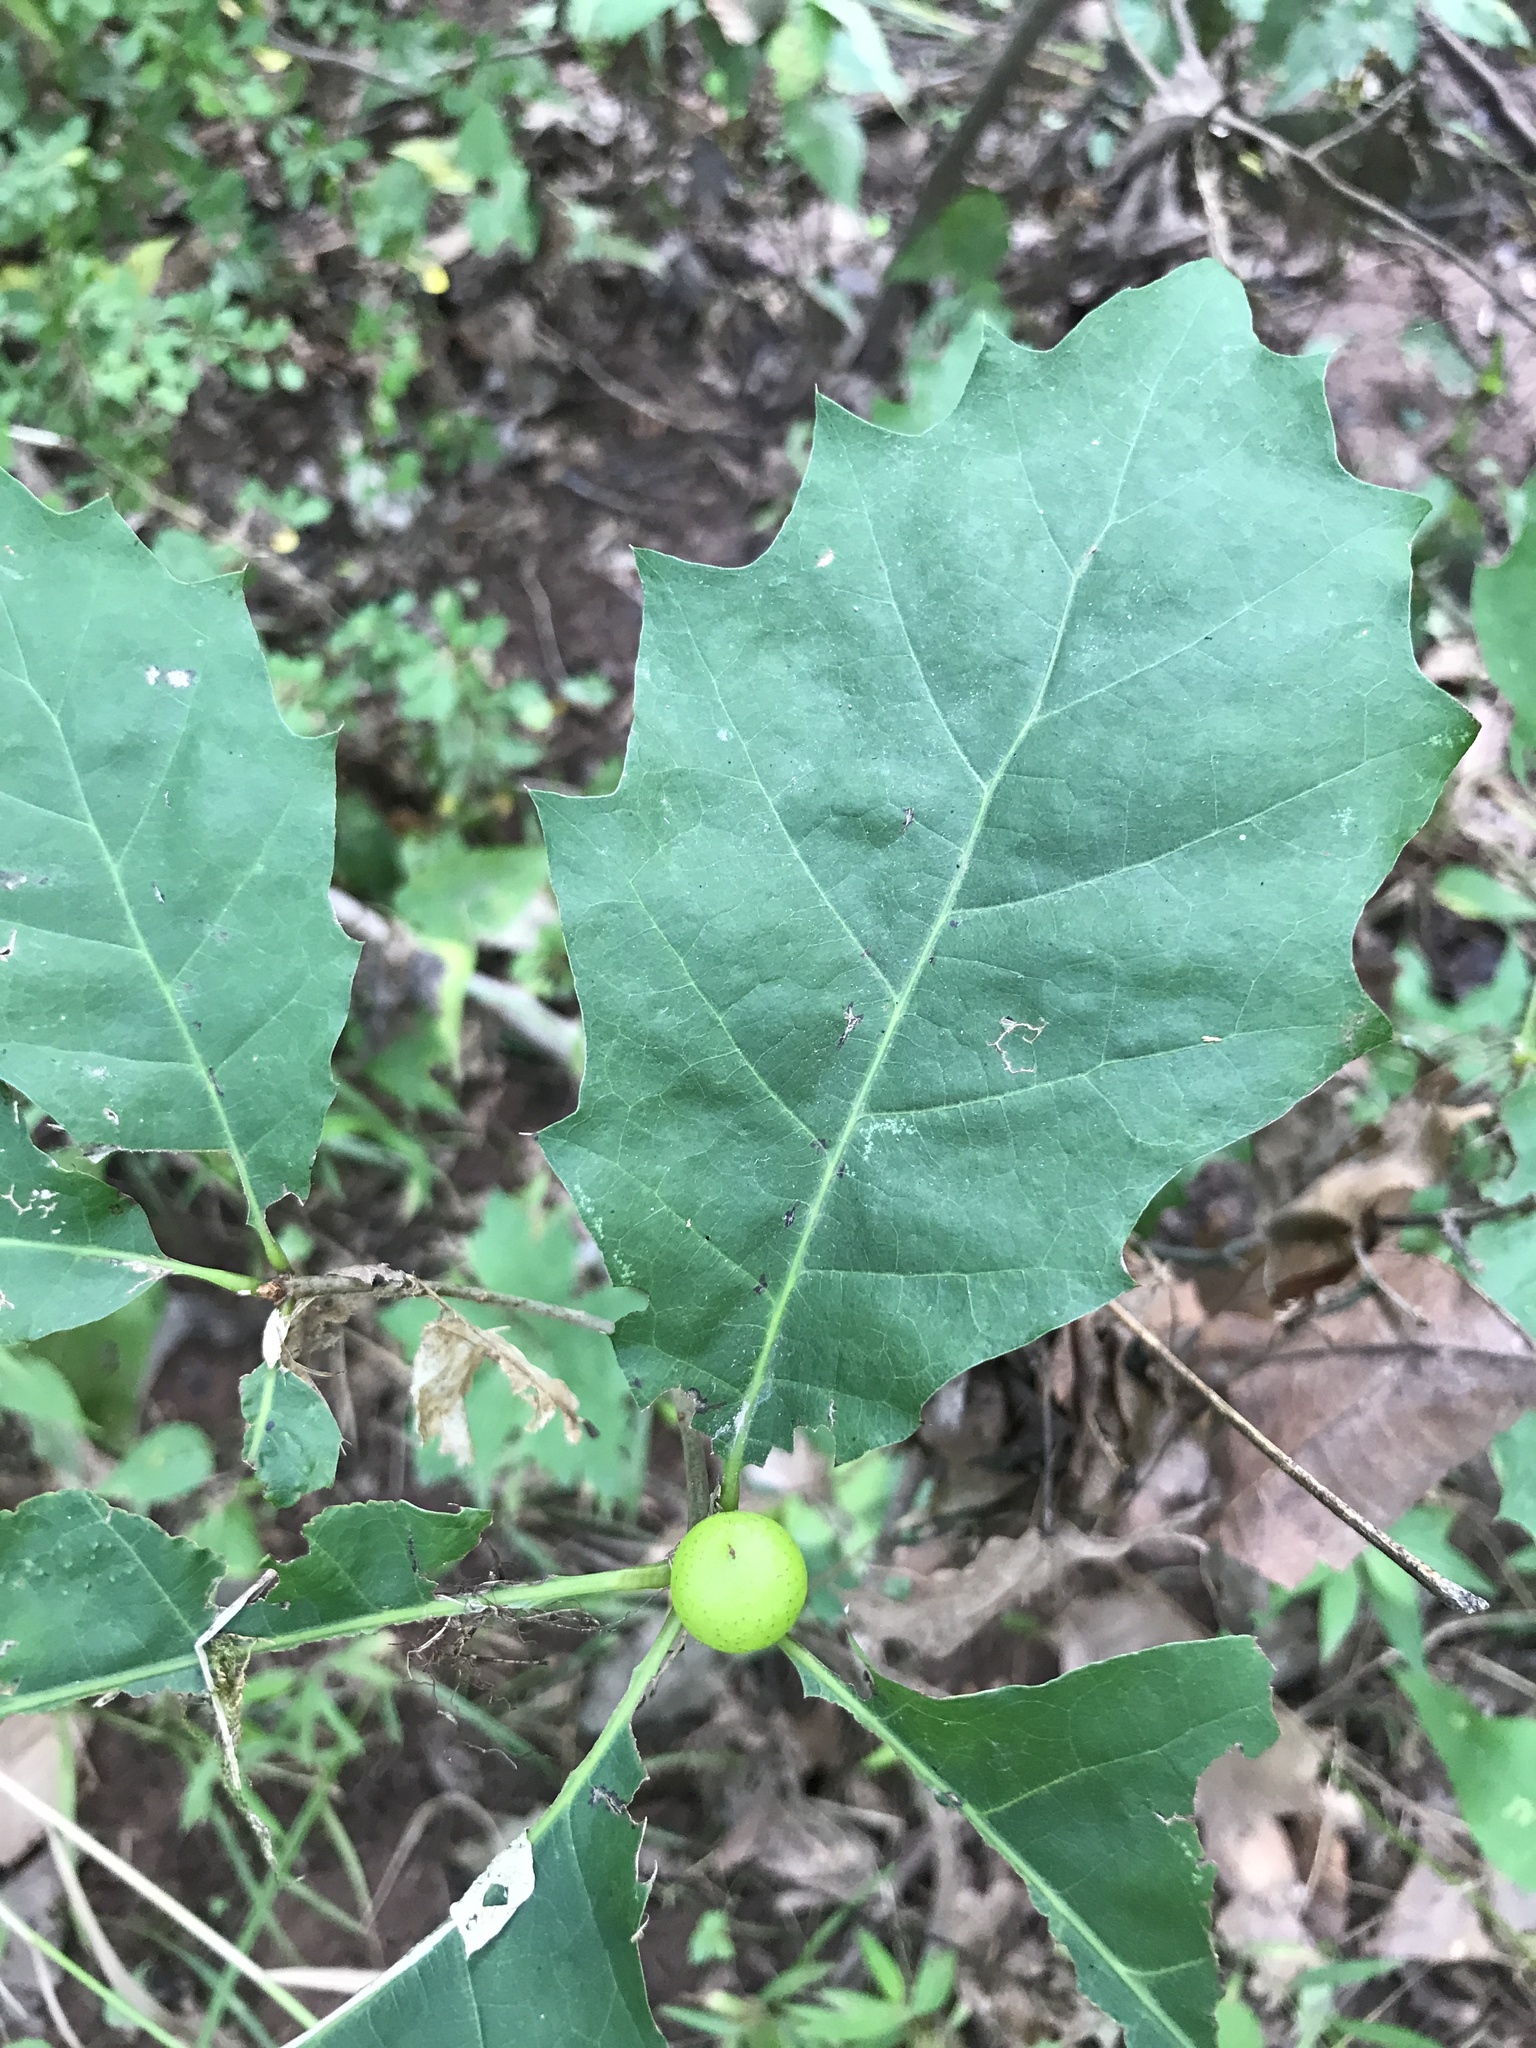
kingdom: Animalia
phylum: Arthropoda
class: Insecta
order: Hymenoptera
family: Cynipidae
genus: Amphibolips
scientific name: Amphibolips
